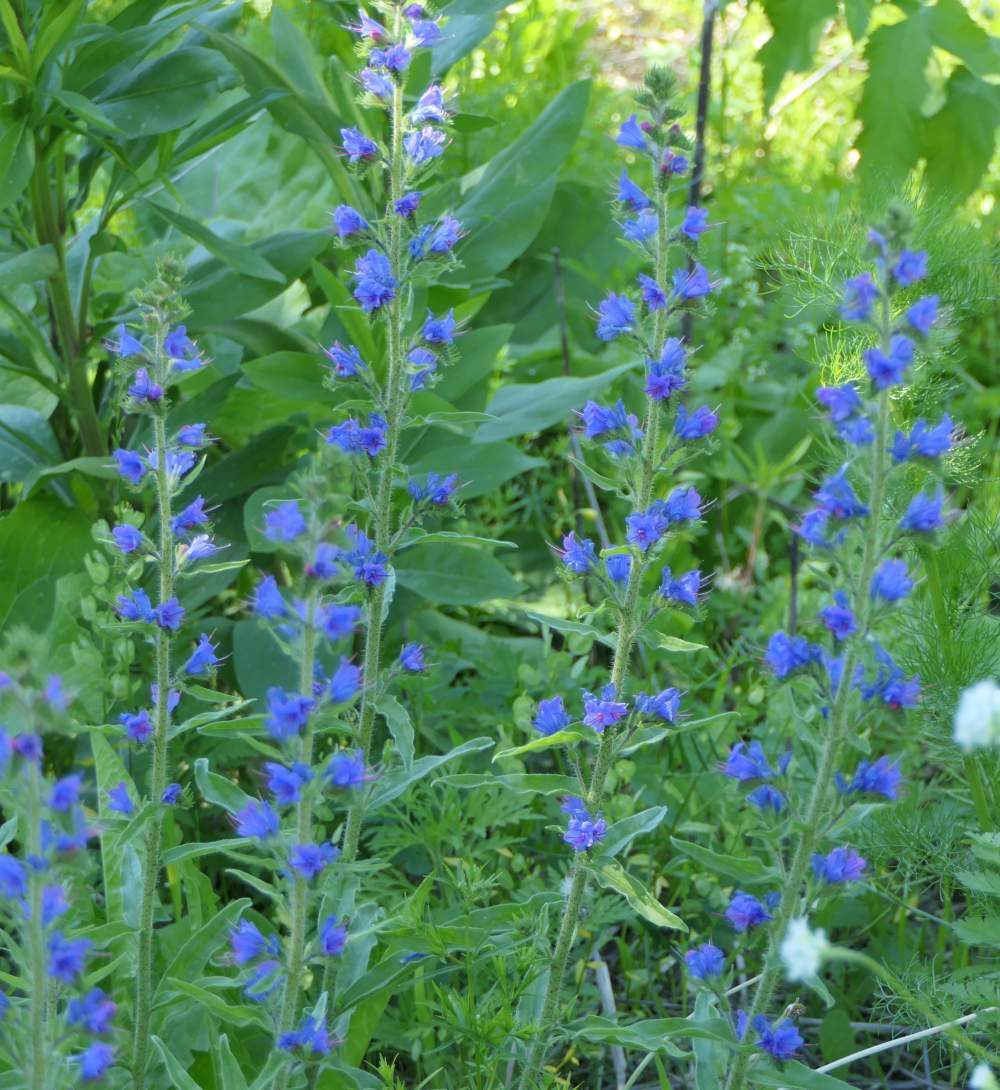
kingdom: Plantae
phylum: Tracheophyta
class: Magnoliopsida
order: Boraginales
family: Boraginaceae
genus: Echium
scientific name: Echium vulgare
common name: Common viper's bugloss
